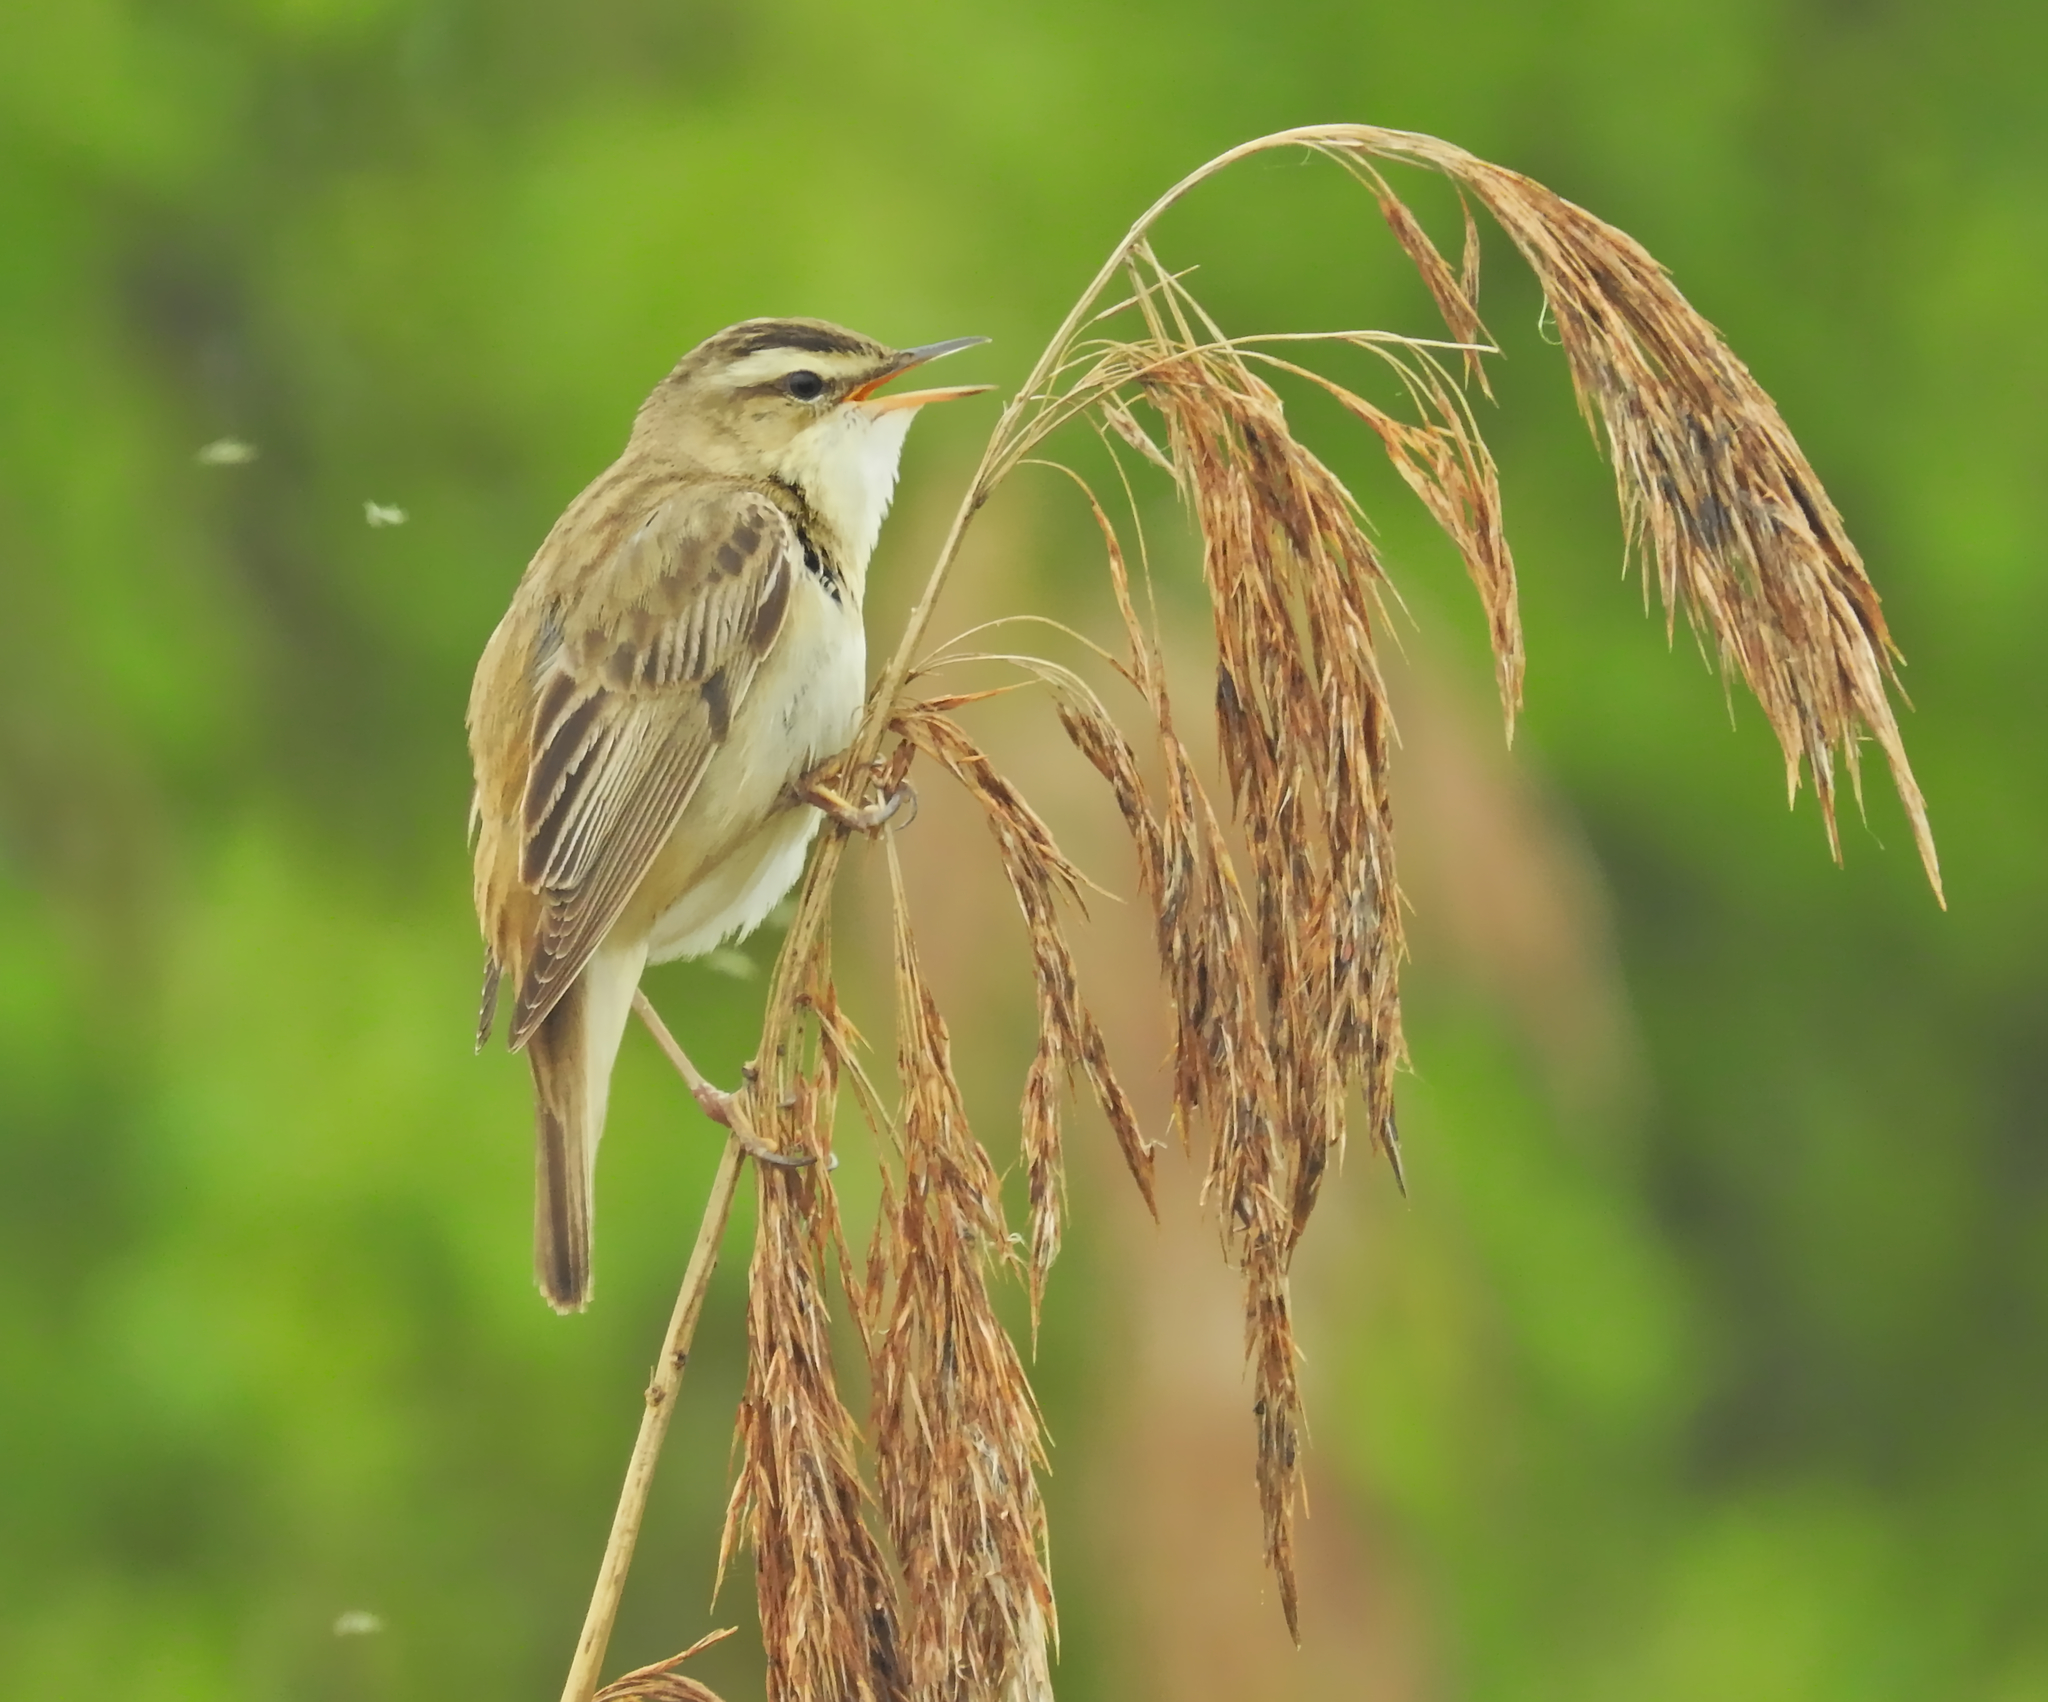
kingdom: Animalia
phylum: Chordata
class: Aves
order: Passeriformes
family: Acrocephalidae
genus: Acrocephalus
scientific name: Acrocephalus schoenobaenus
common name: Sedge warbler
